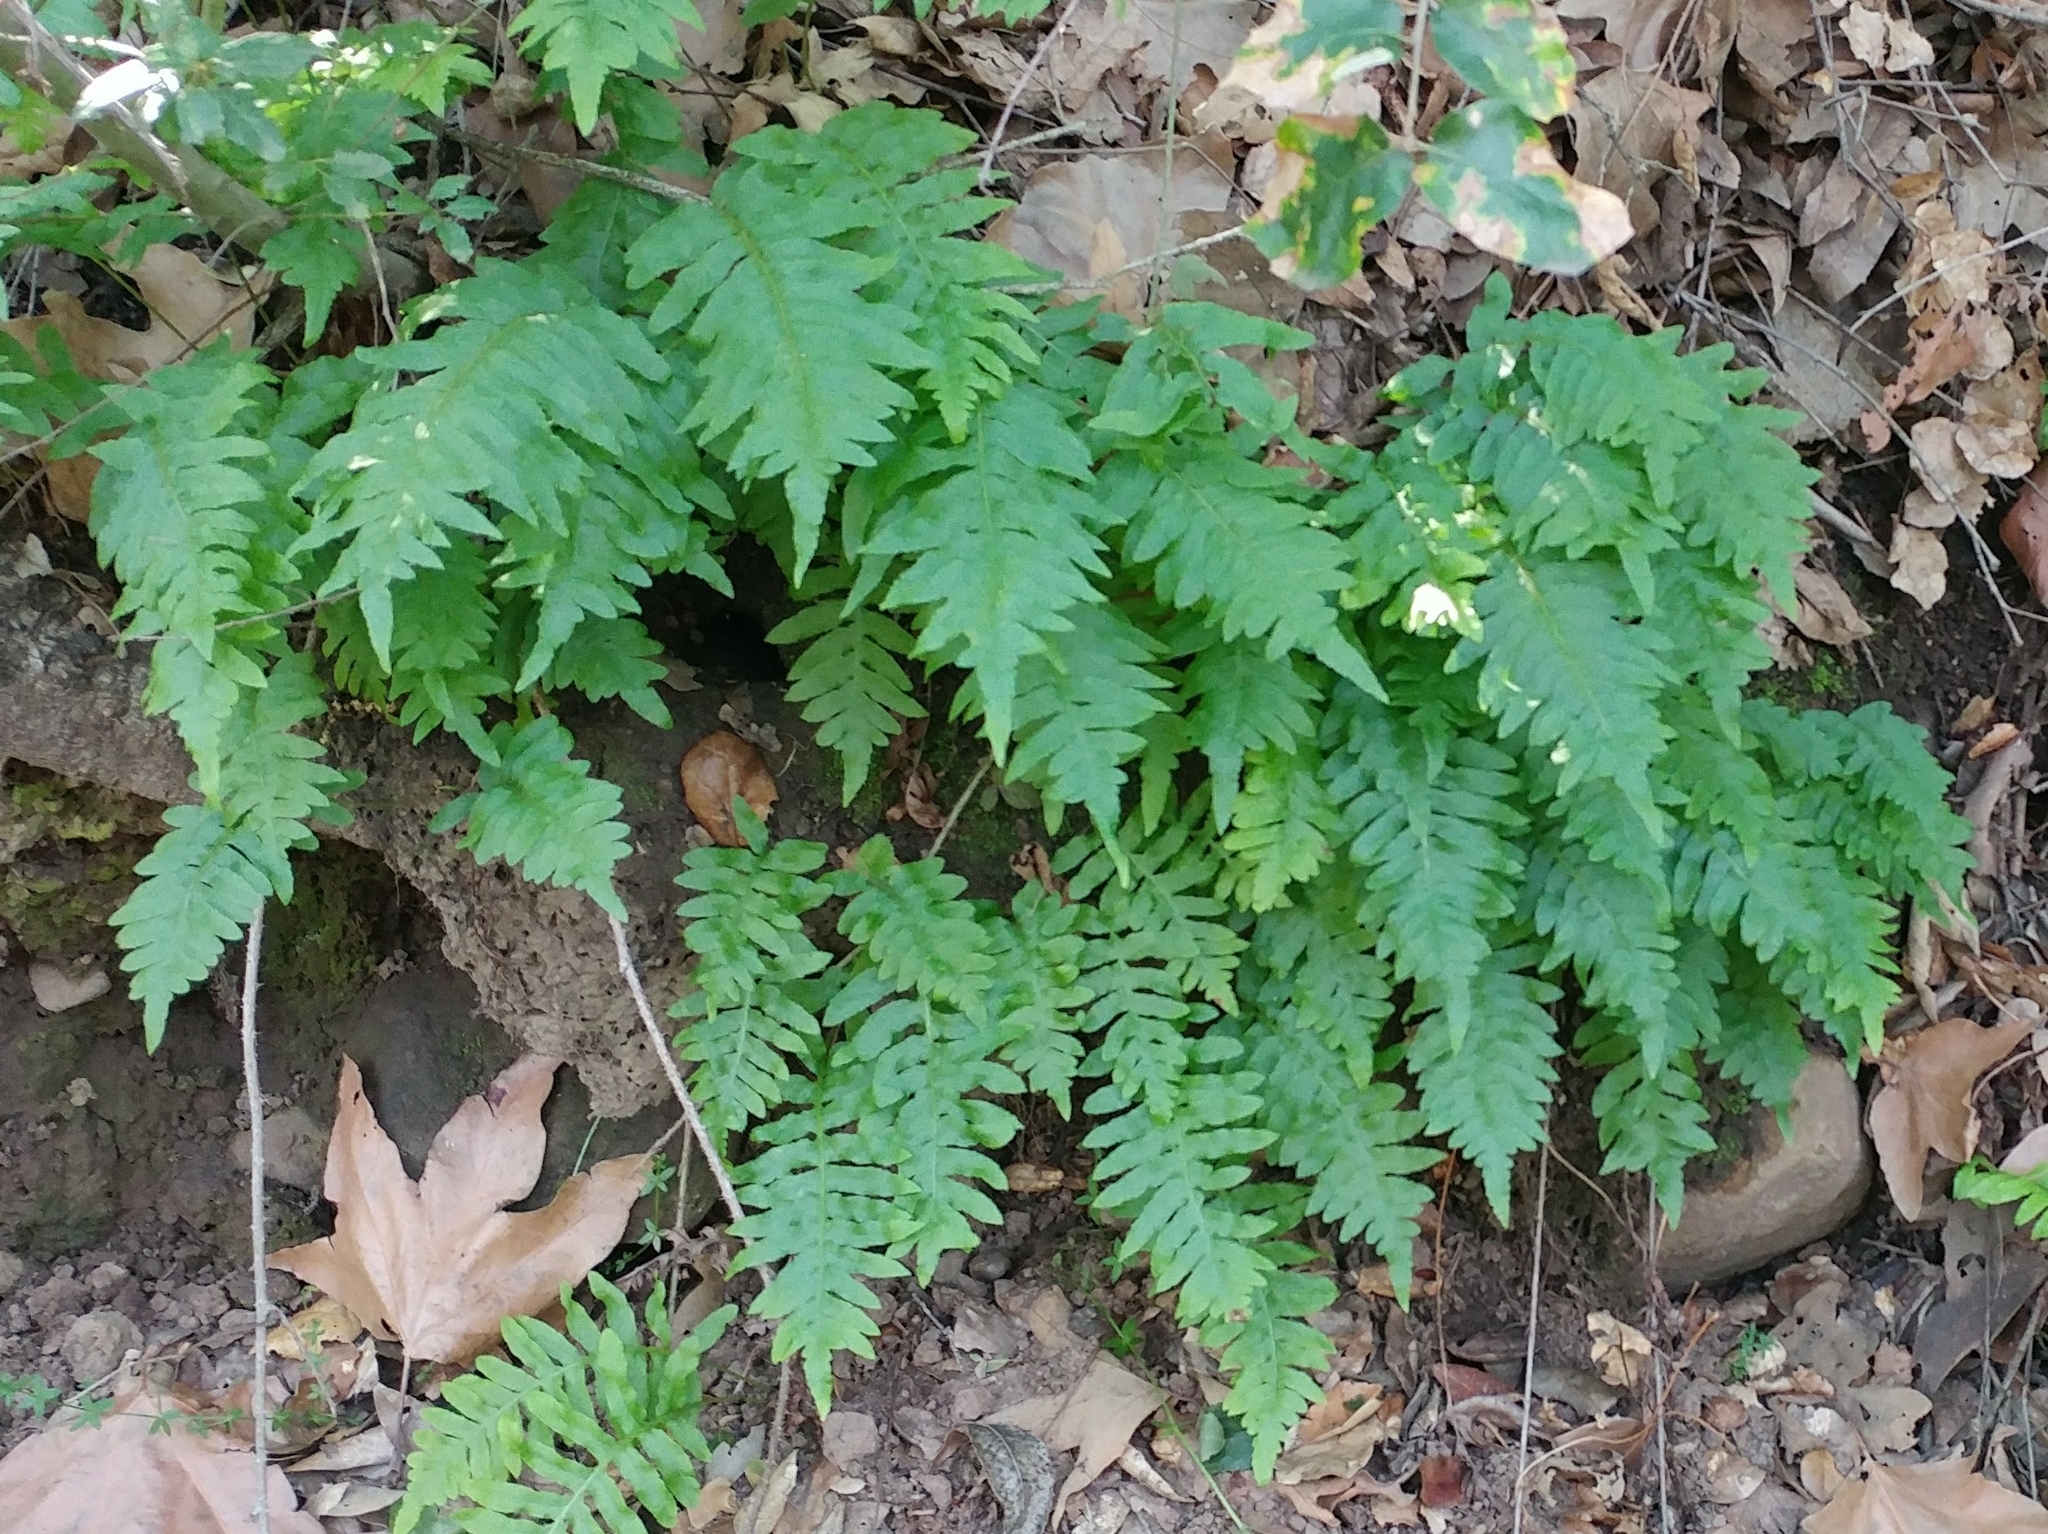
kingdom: Plantae
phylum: Tracheophyta
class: Polypodiopsida
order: Polypodiales
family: Polypodiaceae
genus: Polypodium
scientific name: Polypodium californicum
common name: California polypody
